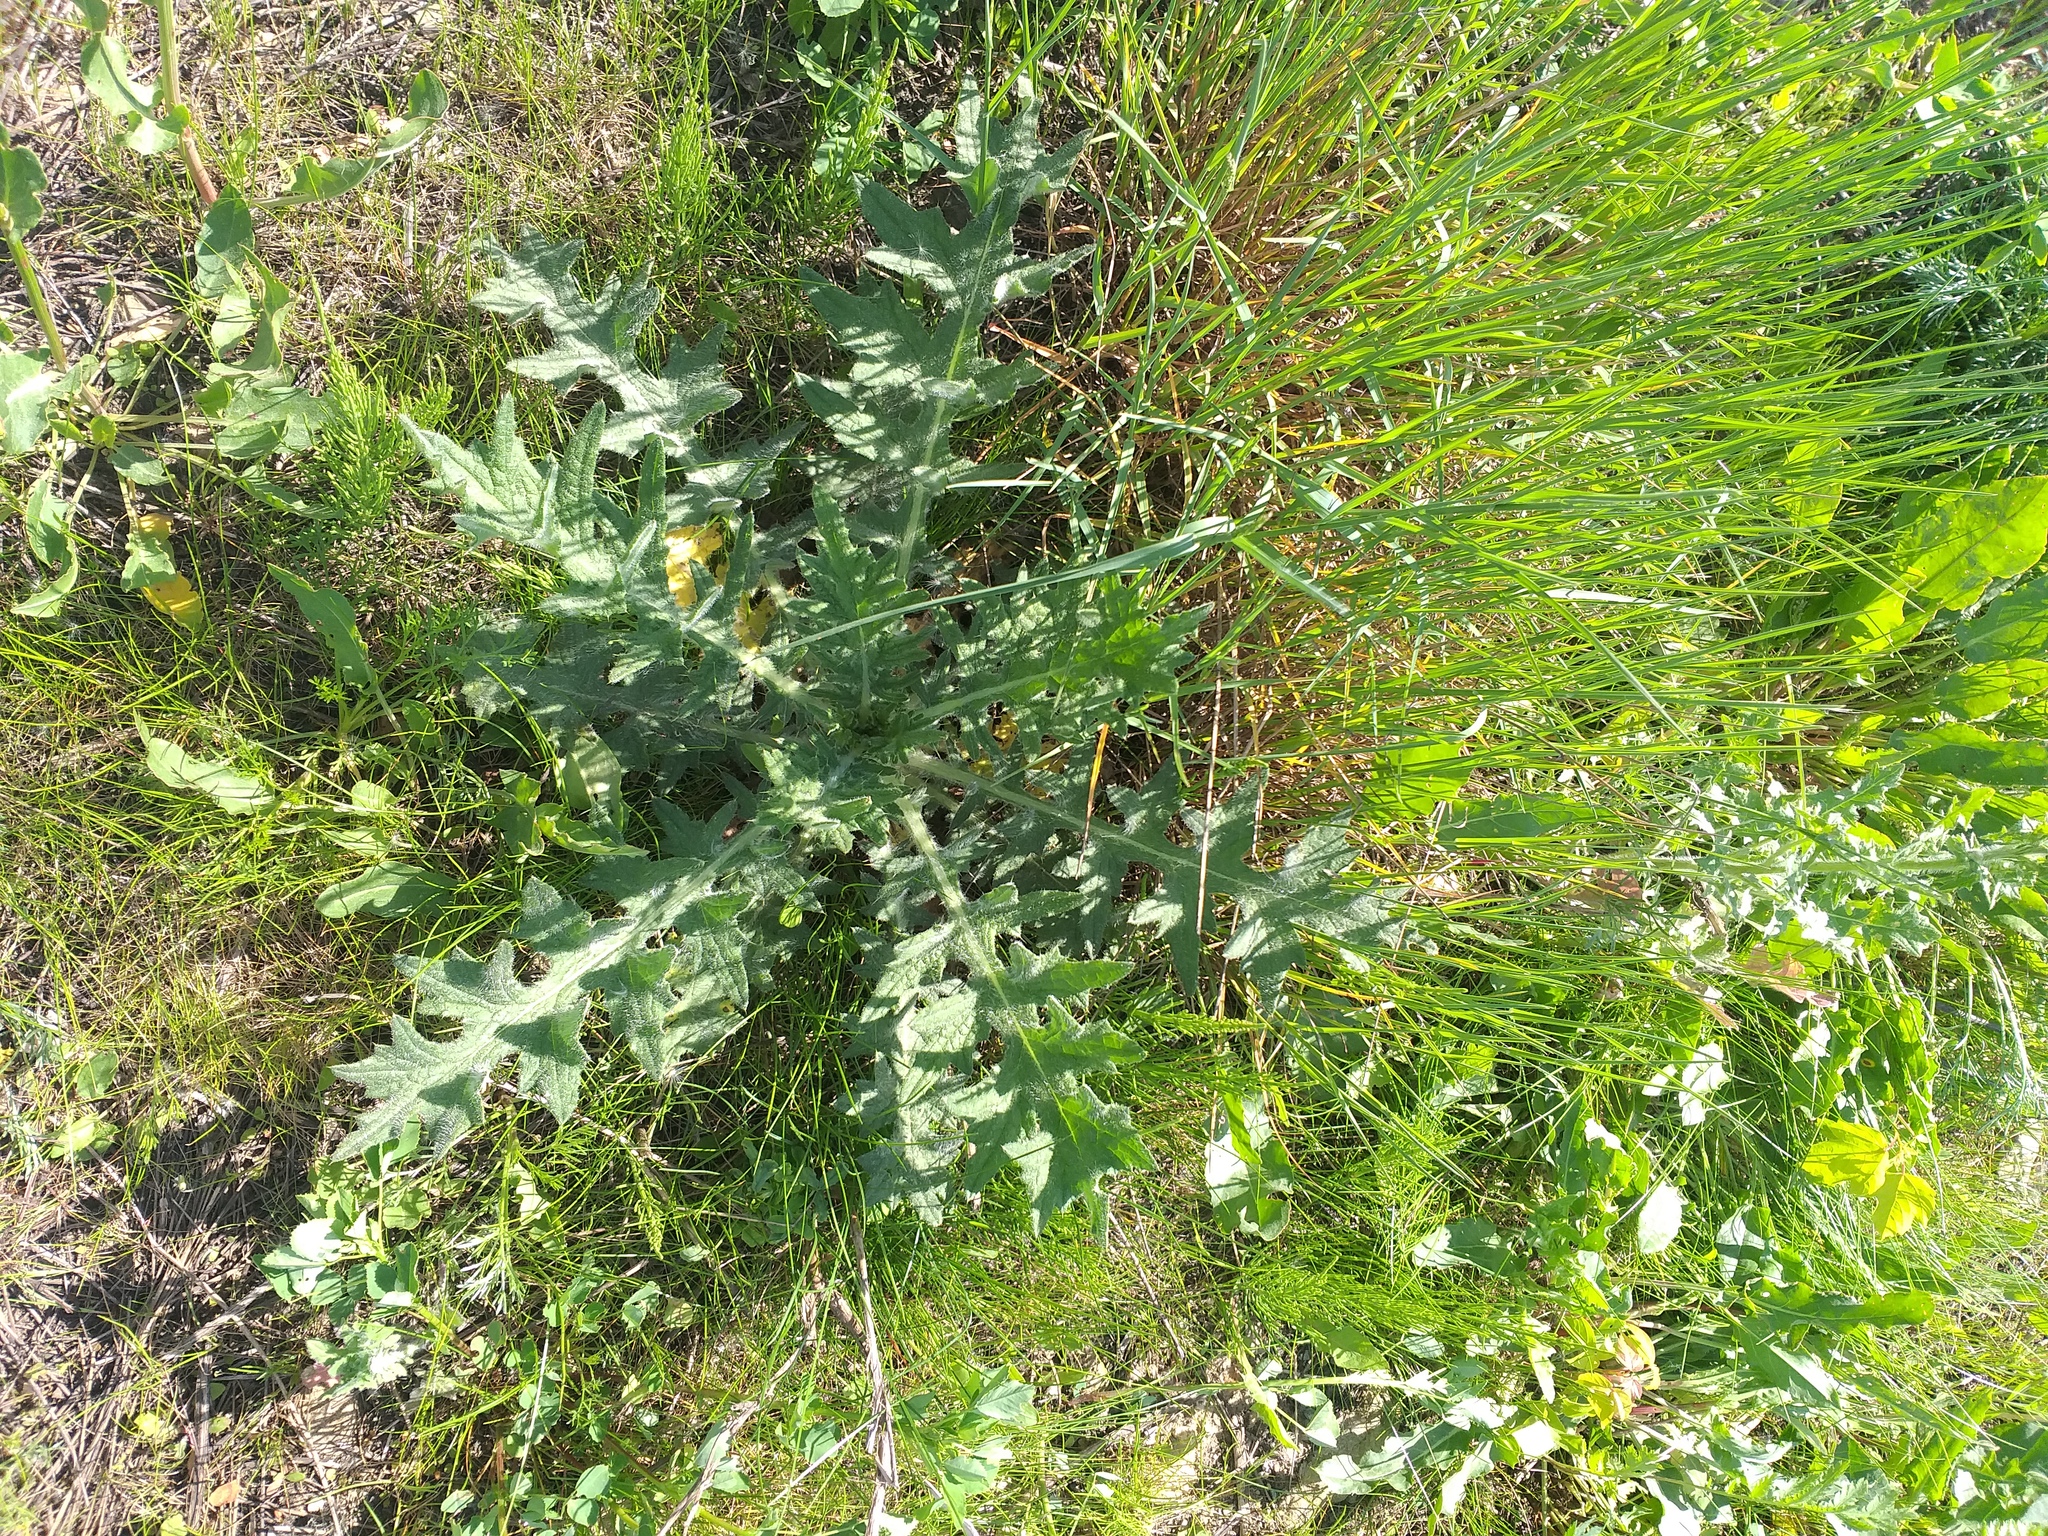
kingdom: Plantae
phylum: Tracheophyta
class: Magnoliopsida
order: Asterales
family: Asteraceae
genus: Cirsium
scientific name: Cirsium vulgare
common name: Bull thistle
